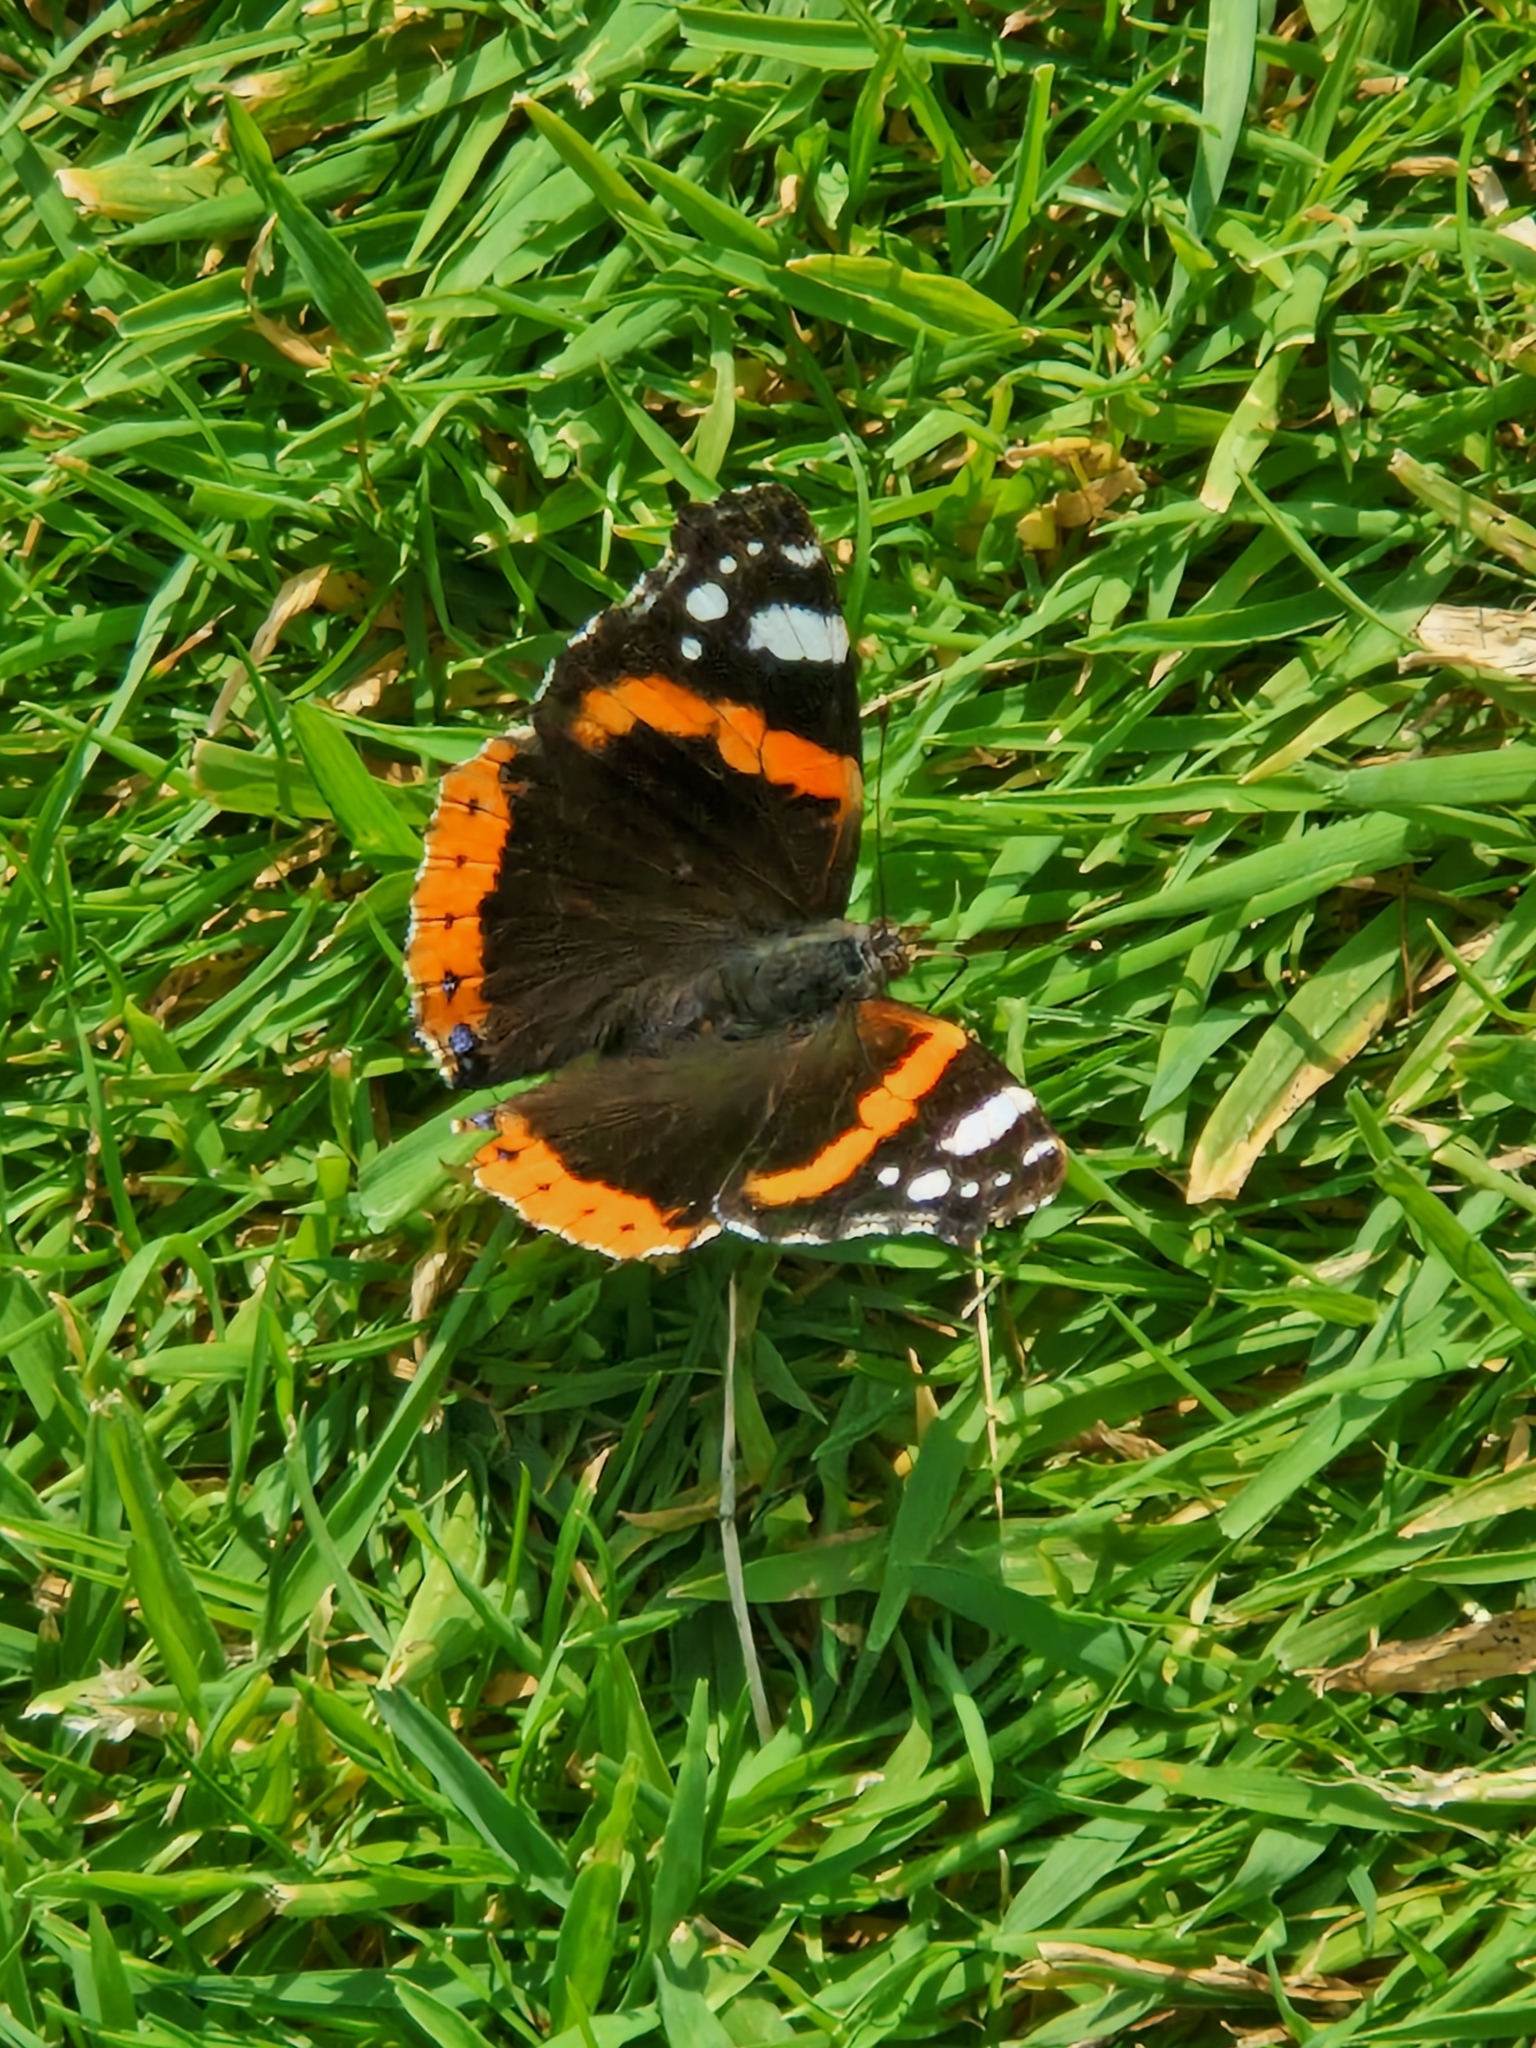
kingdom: Animalia
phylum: Arthropoda
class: Insecta
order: Lepidoptera
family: Nymphalidae
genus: Vanessa
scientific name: Vanessa atalanta
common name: Red admiral
